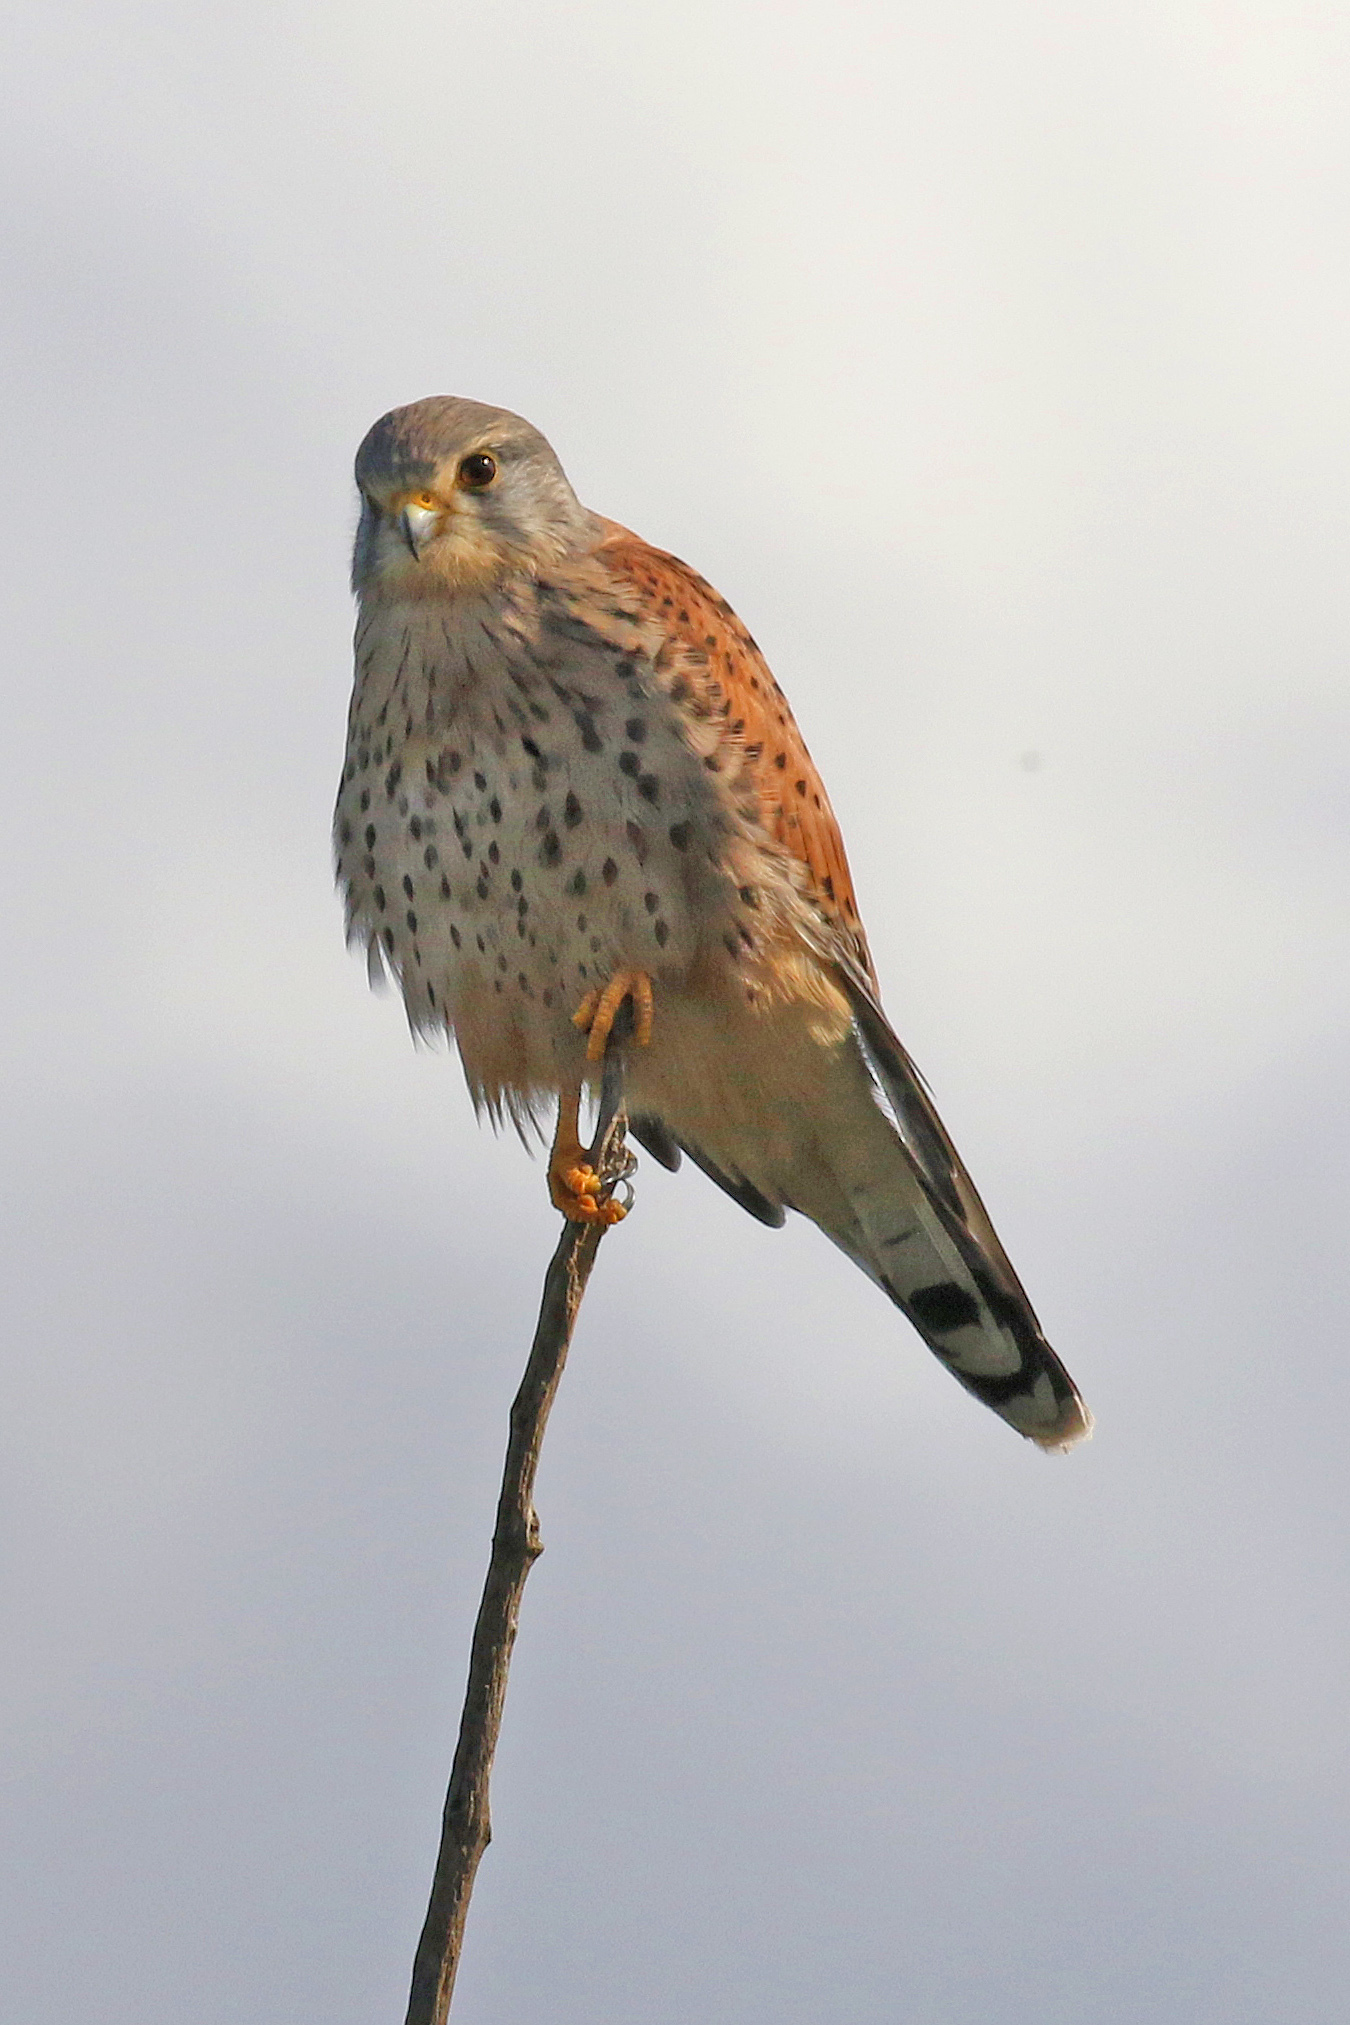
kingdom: Animalia
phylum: Chordata
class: Aves
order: Falconiformes
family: Falconidae
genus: Falco
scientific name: Falco tinnunculus
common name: Common kestrel
